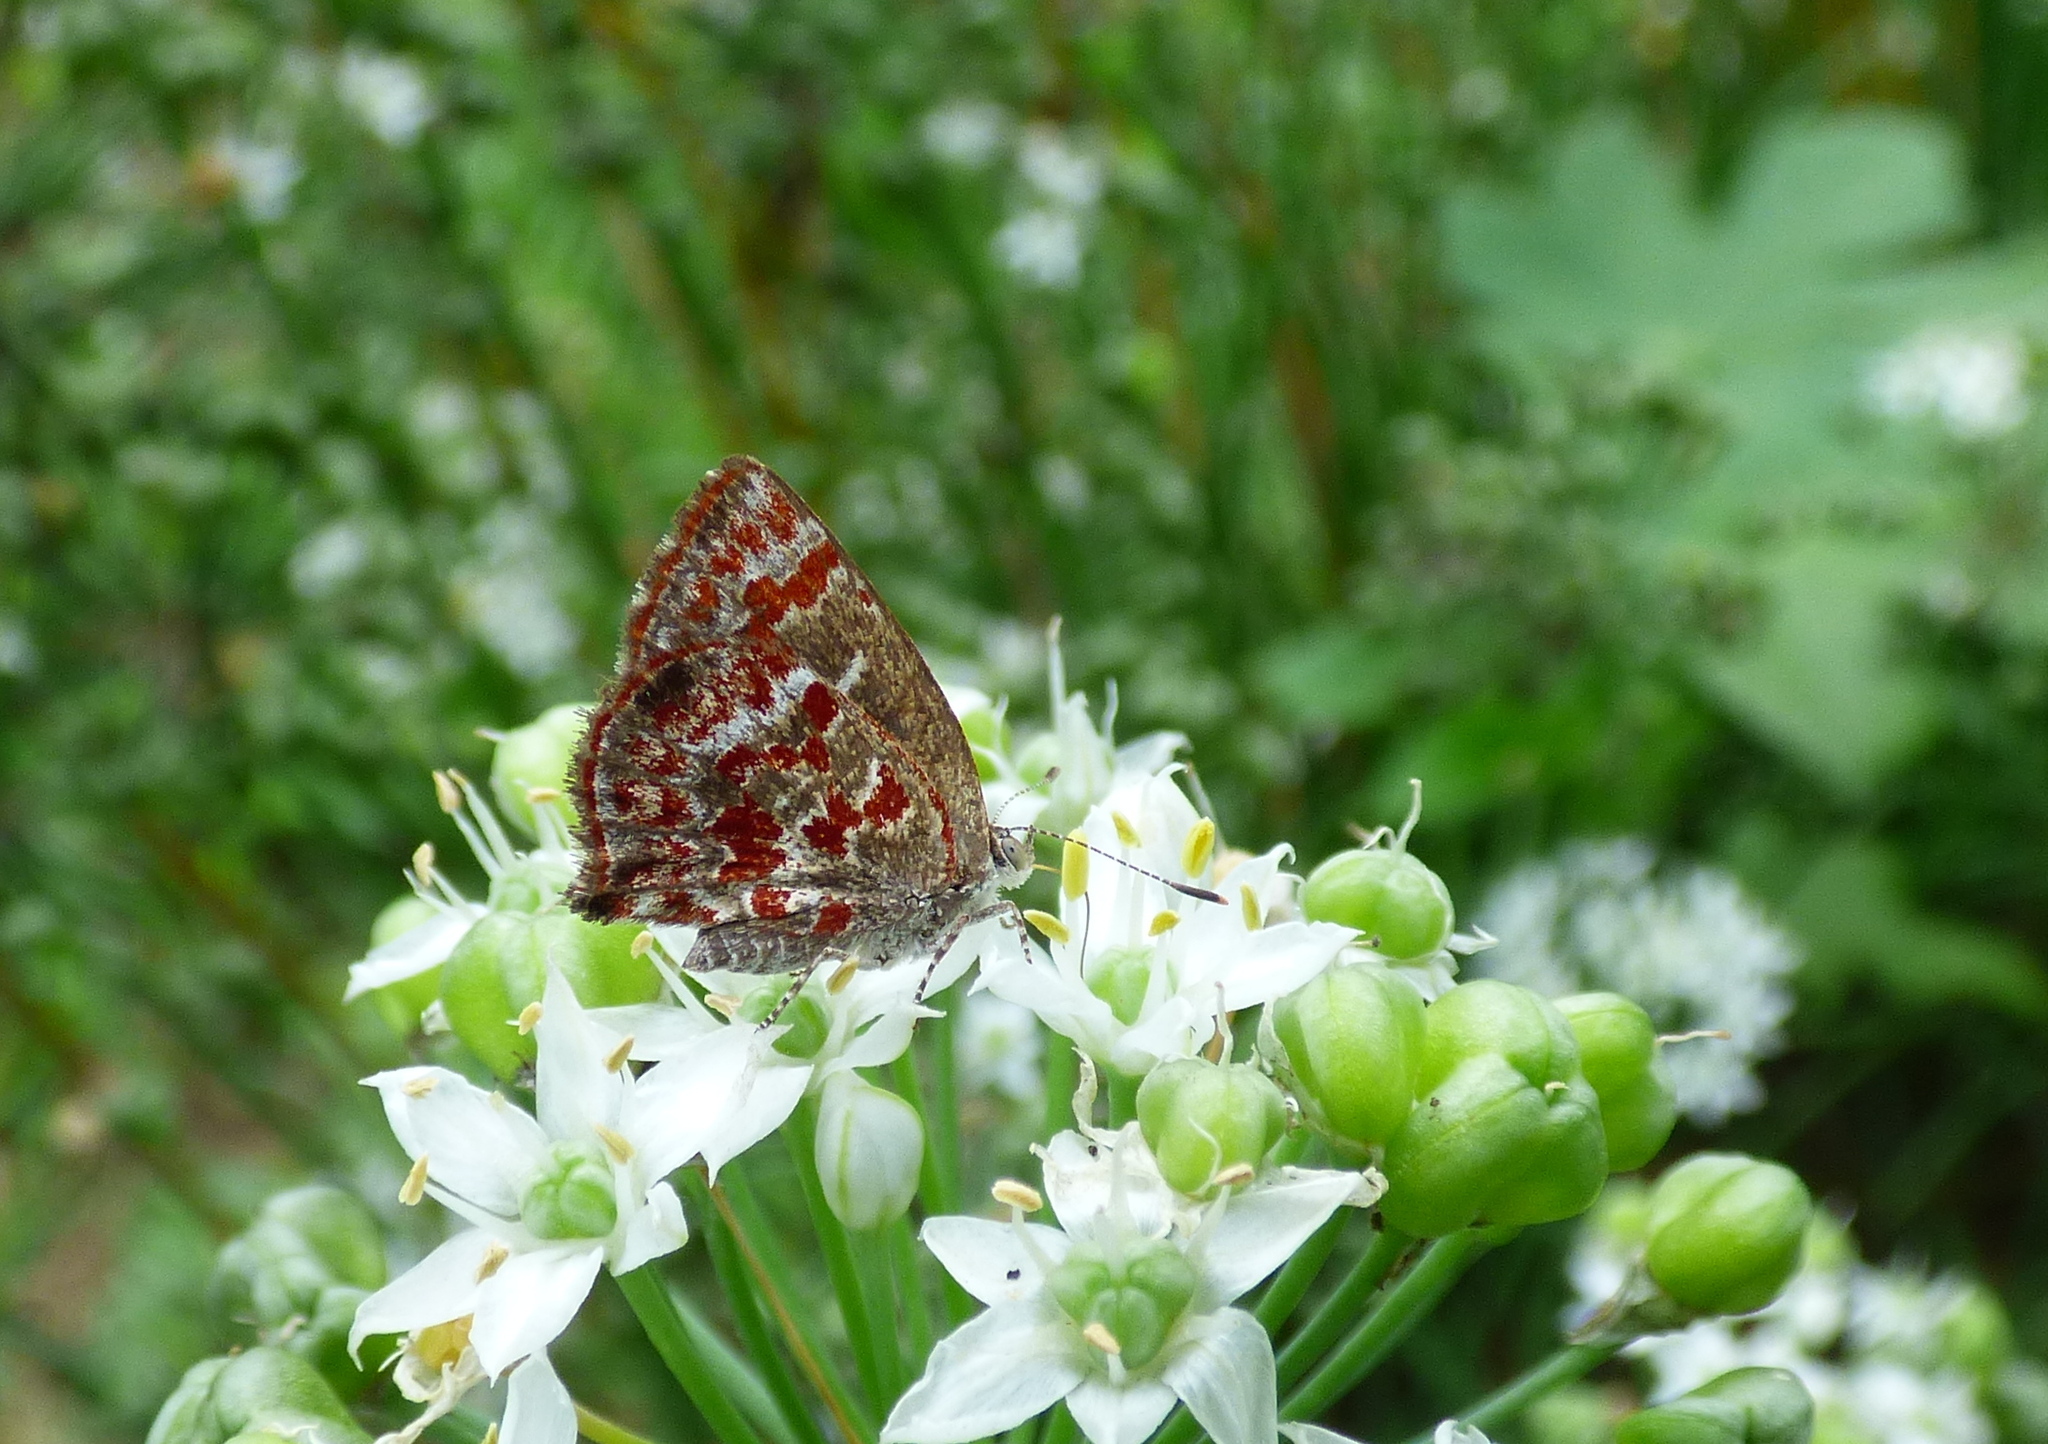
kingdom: Animalia
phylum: Arthropoda
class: Insecta
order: Lepidoptera
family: Lycaenidae
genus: Ministrymon
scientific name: Ministrymon
